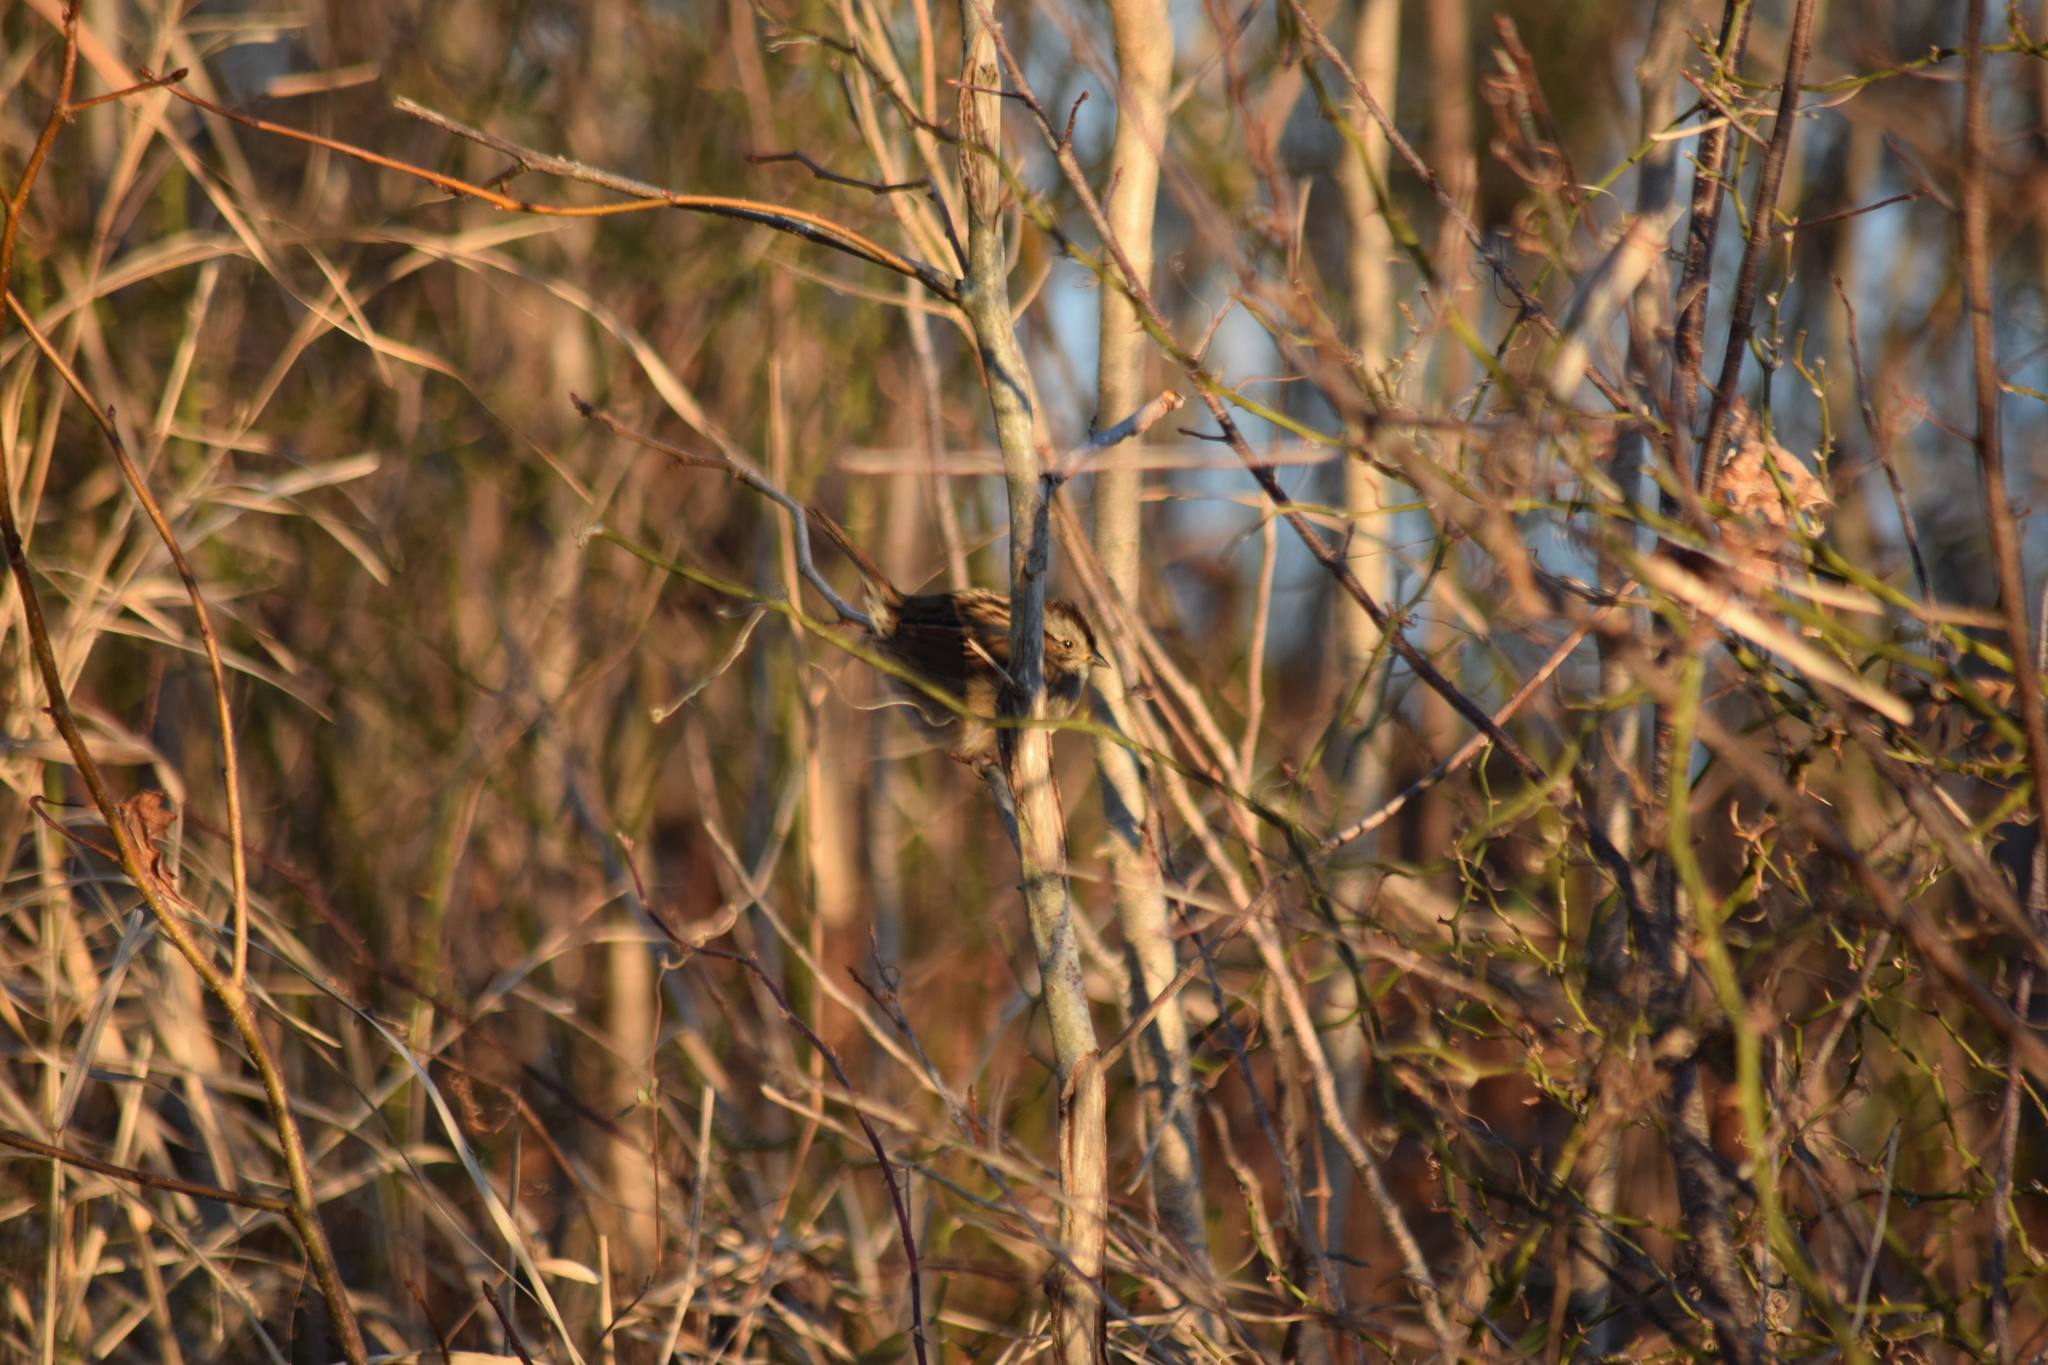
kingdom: Animalia
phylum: Chordata
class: Aves
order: Passeriformes
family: Passerellidae
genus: Melospiza
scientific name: Melospiza georgiana
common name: Swamp sparrow
